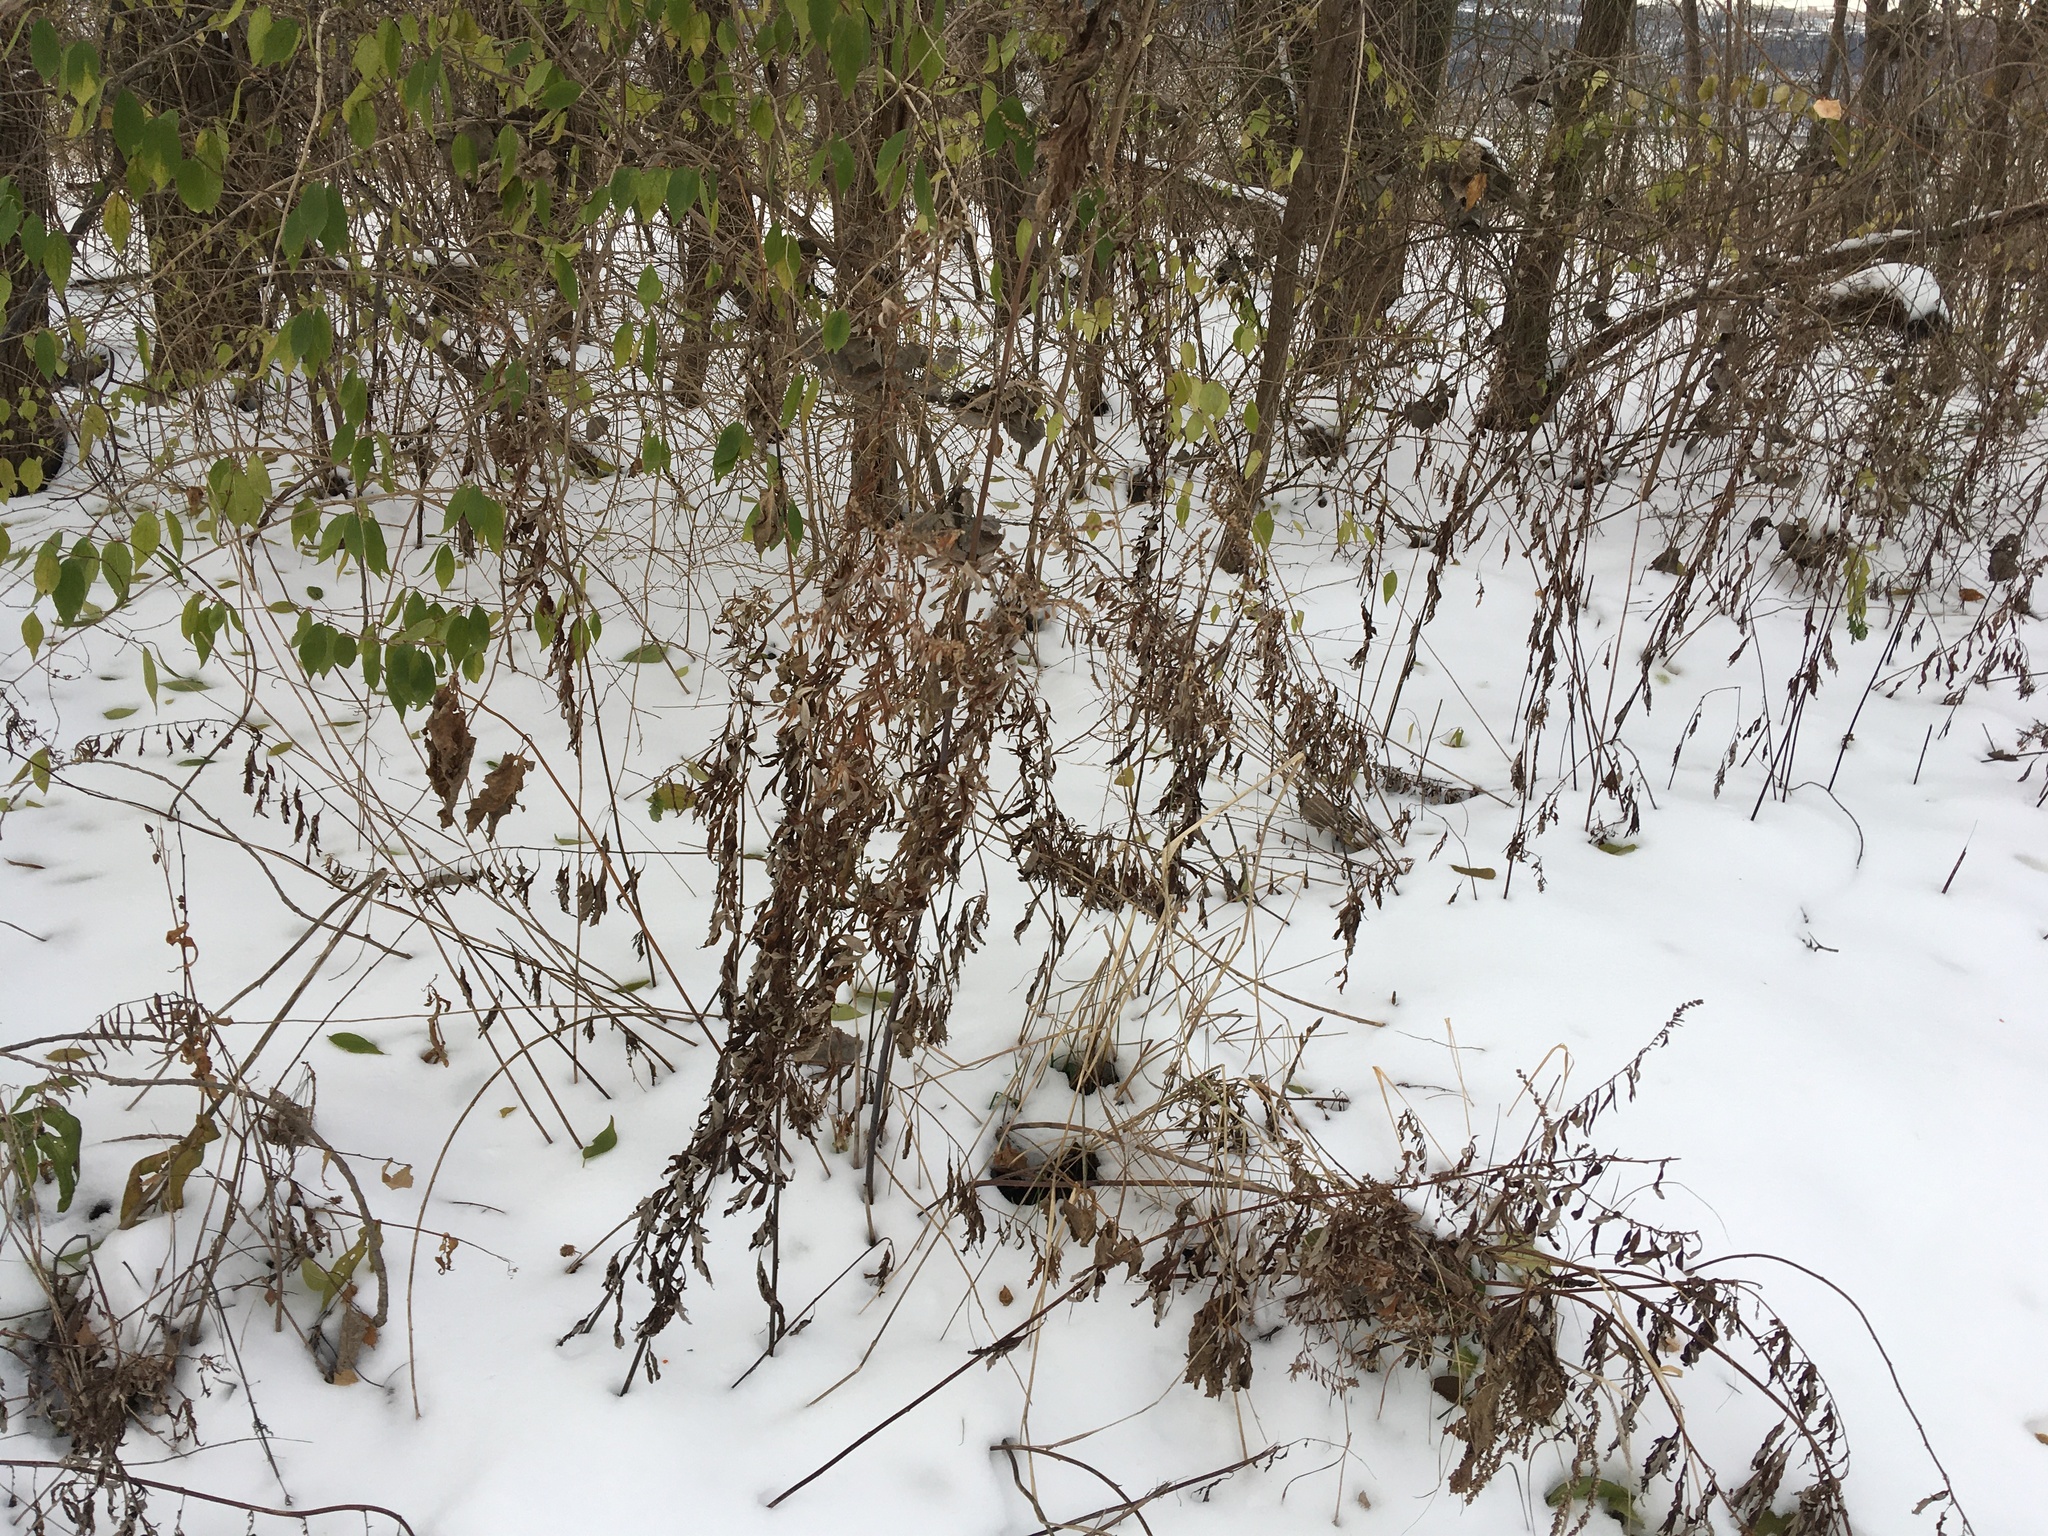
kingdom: Plantae
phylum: Tracheophyta
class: Magnoliopsida
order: Asterales
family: Asteraceae
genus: Artemisia
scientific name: Artemisia vulgaris
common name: Mugwort
